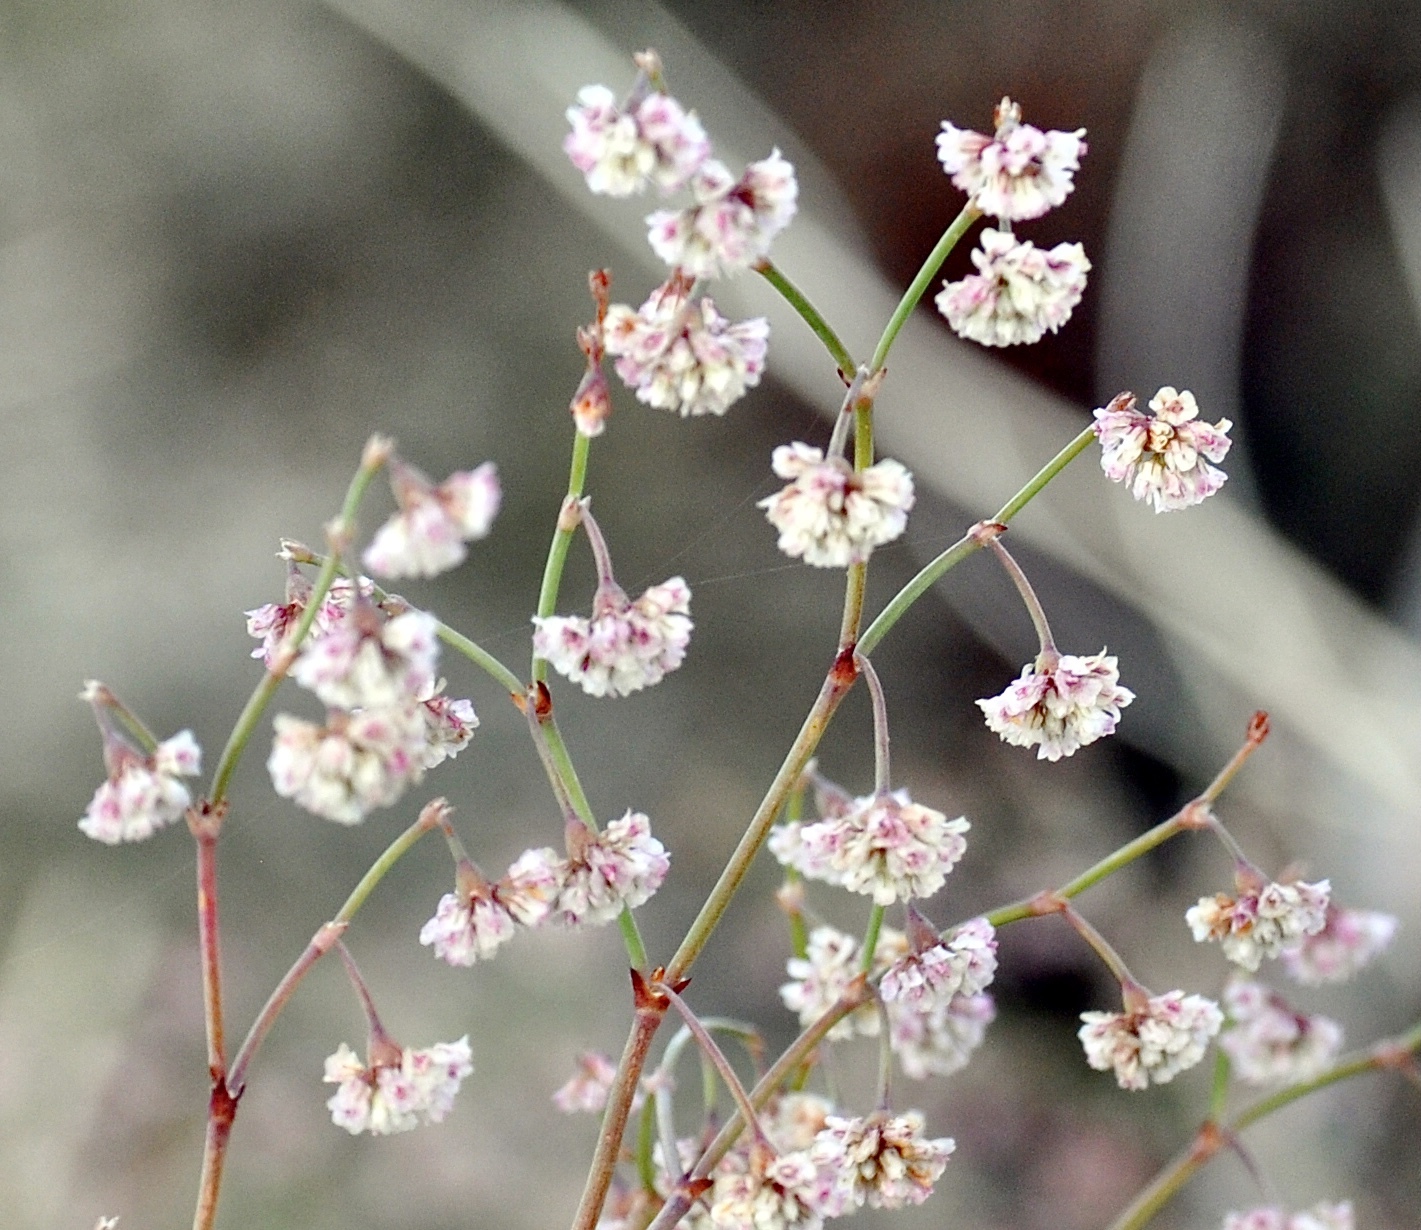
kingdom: Plantae
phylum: Tracheophyta
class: Magnoliopsida
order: Caryophyllales
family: Polygonaceae
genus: Eriogonum
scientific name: Eriogonum cernuum
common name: Nodding wild buckwheat
